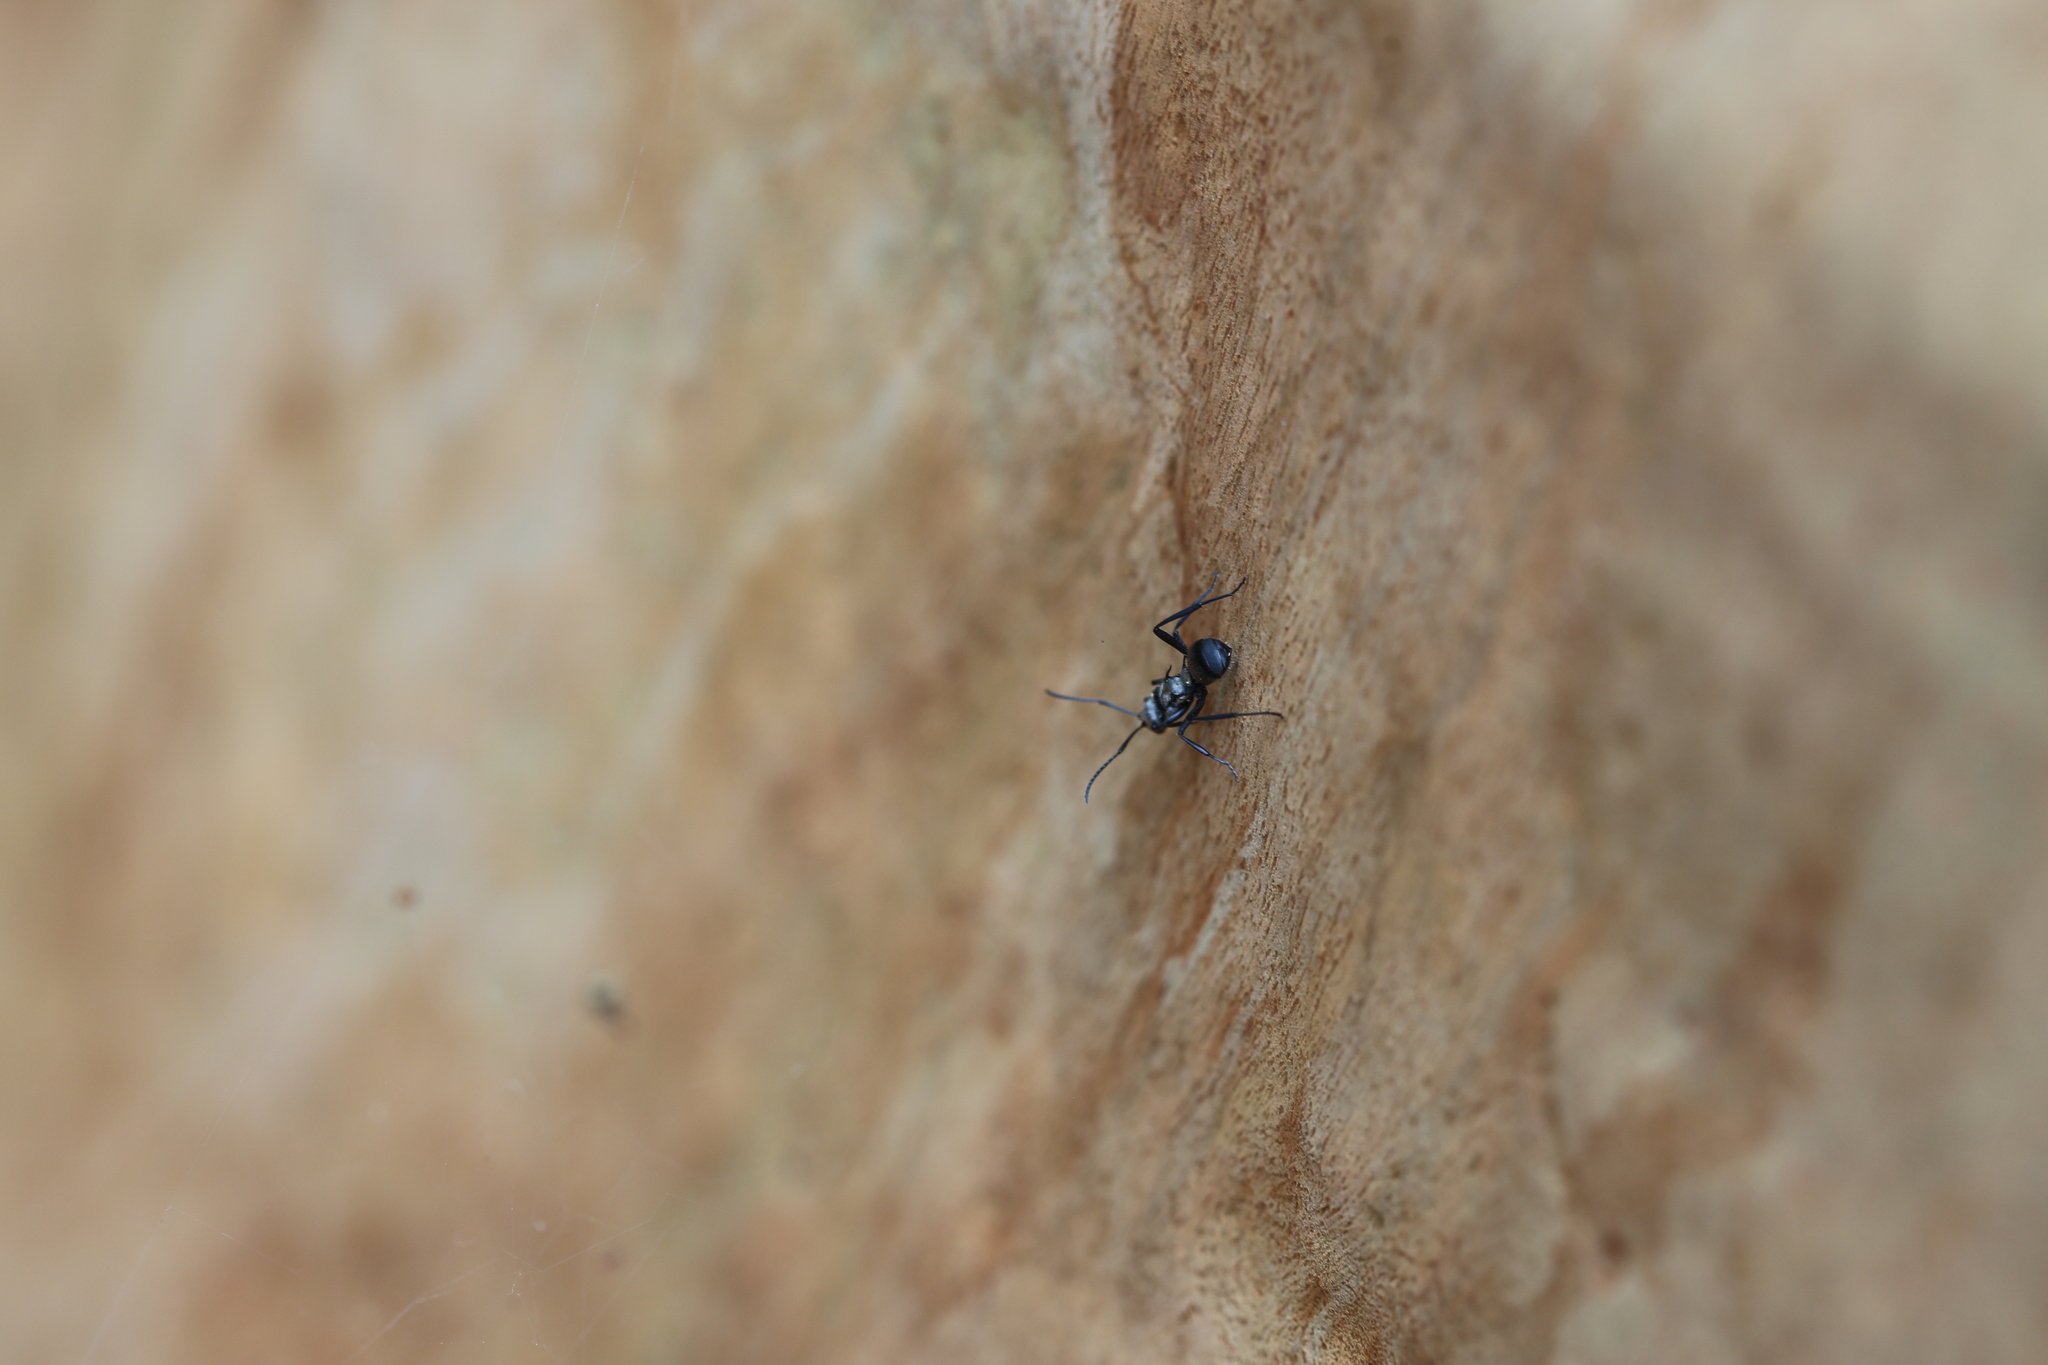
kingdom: Animalia
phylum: Arthropoda
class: Insecta
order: Hymenoptera
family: Formicidae
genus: Polyrhachis
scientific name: Polyrhachis daemeli
